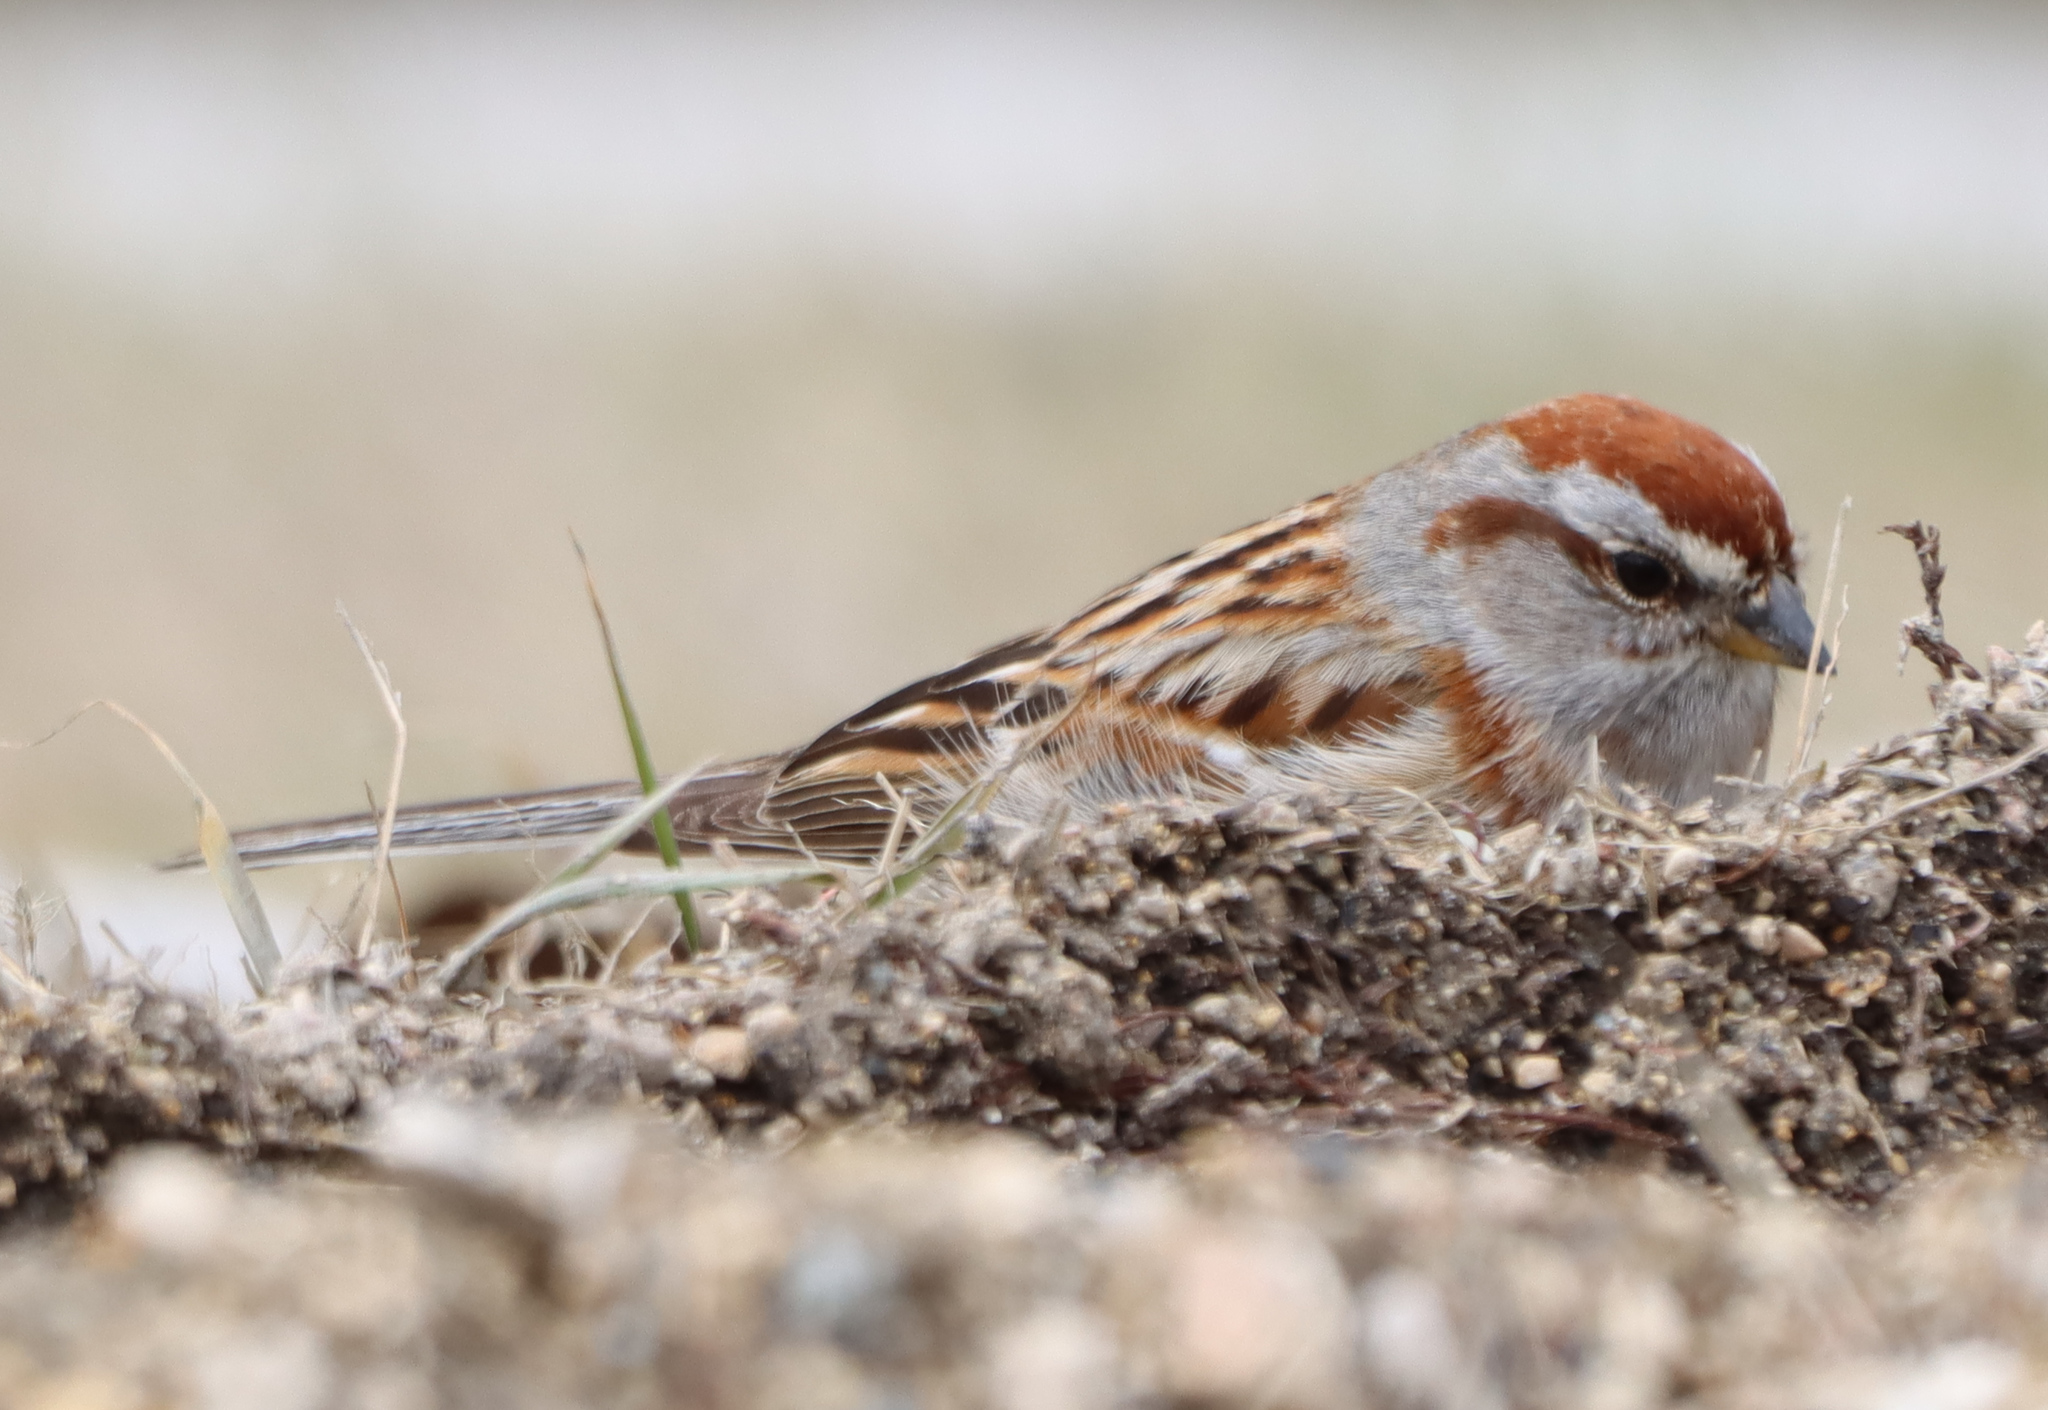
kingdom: Animalia
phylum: Chordata
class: Aves
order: Passeriformes
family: Passerellidae
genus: Spizelloides
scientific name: Spizelloides arborea
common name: American tree sparrow
